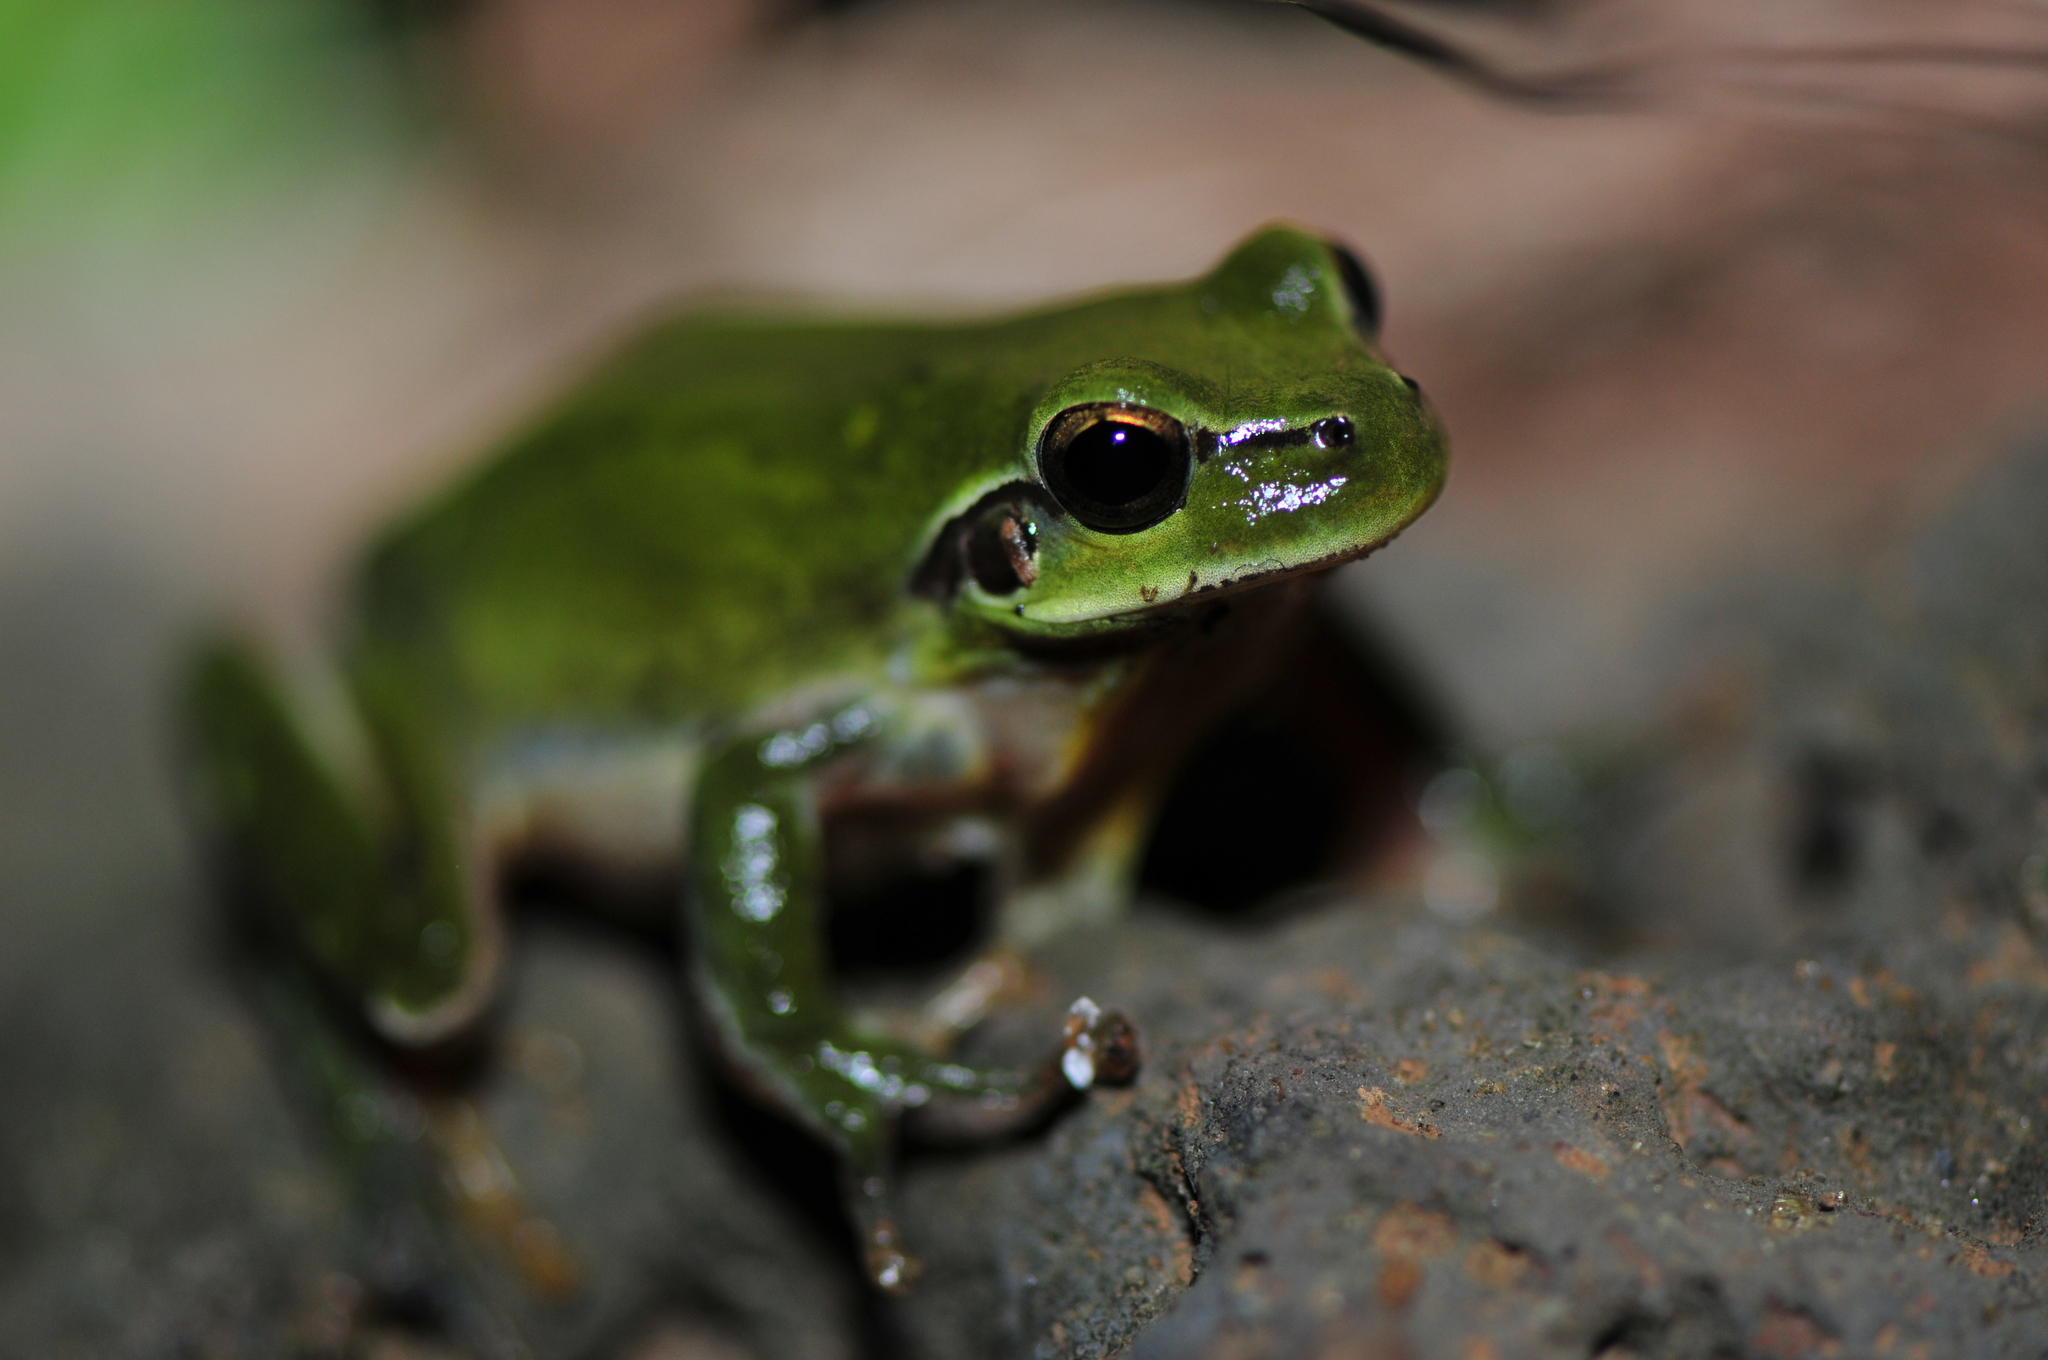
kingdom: Animalia
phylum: Chordata
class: Amphibia
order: Anura
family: Hylidae
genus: Hyla
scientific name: Hyla meridionalis
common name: Stripeless tree frog
